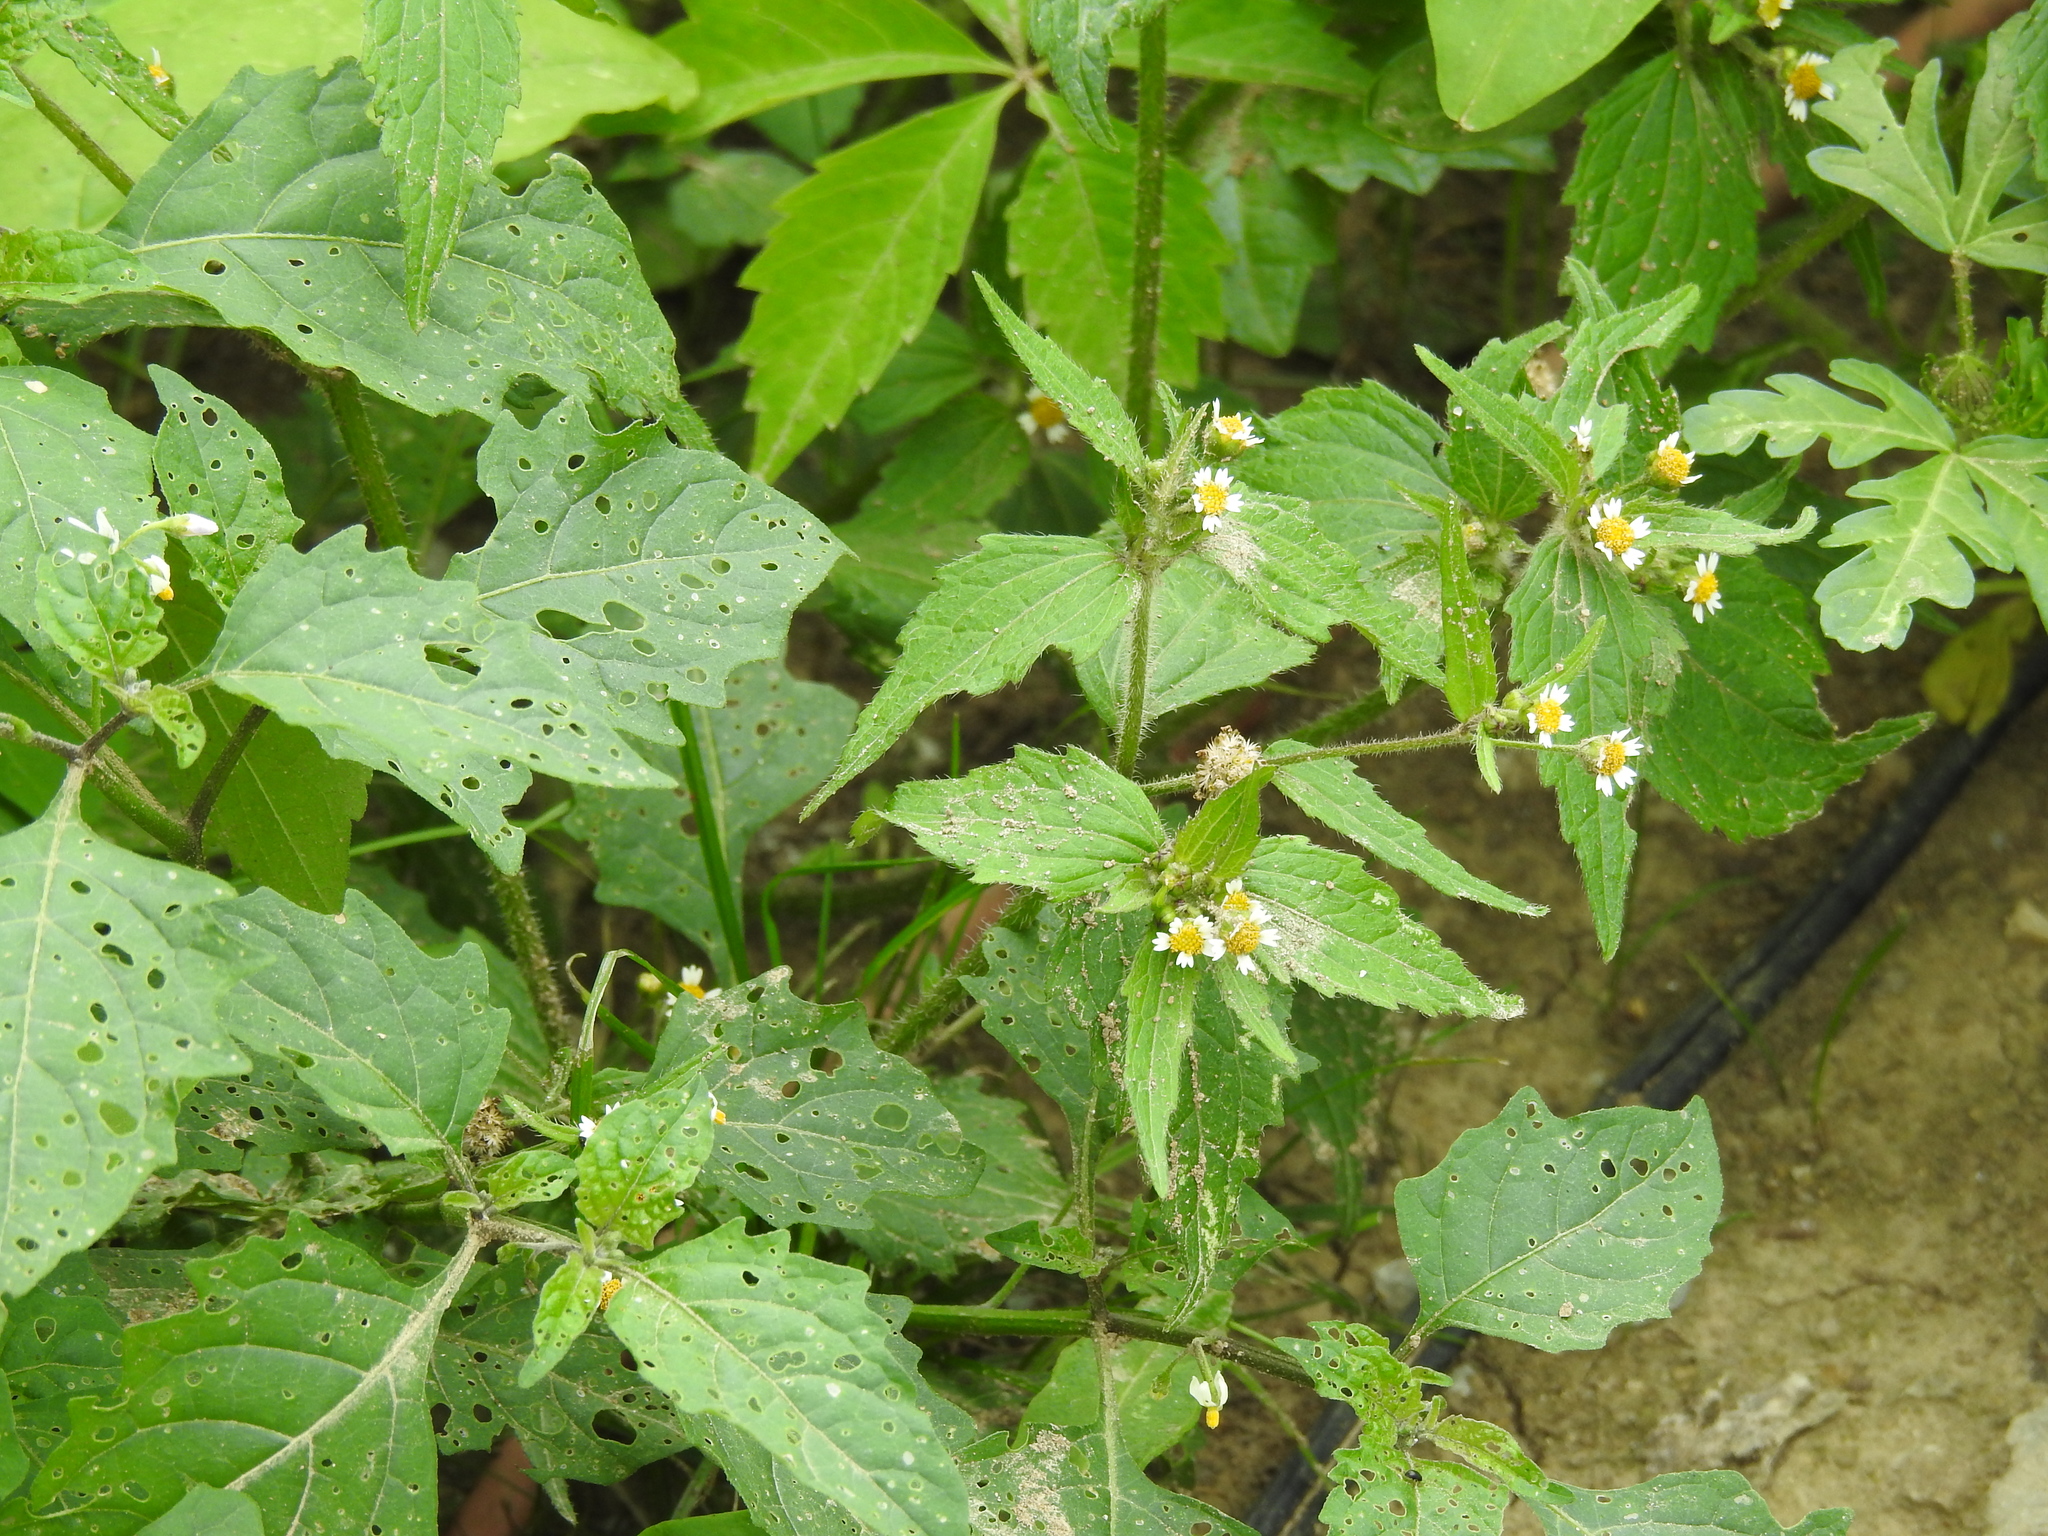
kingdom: Plantae
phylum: Tracheophyta
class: Magnoliopsida
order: Asterales
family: Asteraceae
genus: Galinsoga
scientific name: Galinsoga quadriradiata
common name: Shaggy soldier
